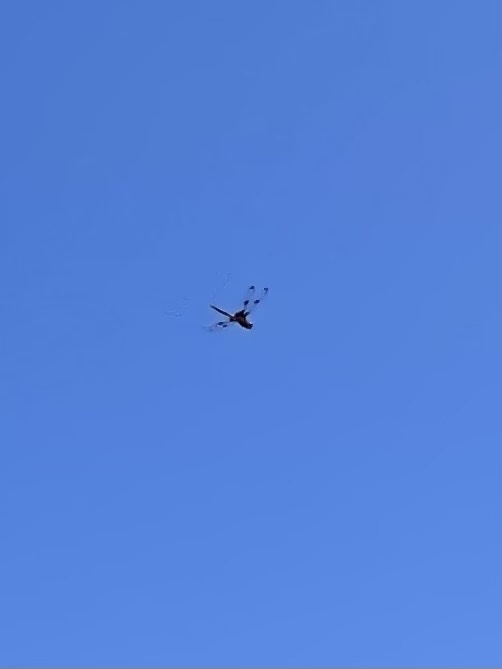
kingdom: Animalia
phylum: Arthropoda
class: Insecta
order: Odonata
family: Corduliidae
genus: Epitheca
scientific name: Epitheca princeps
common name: Prince baskettail
